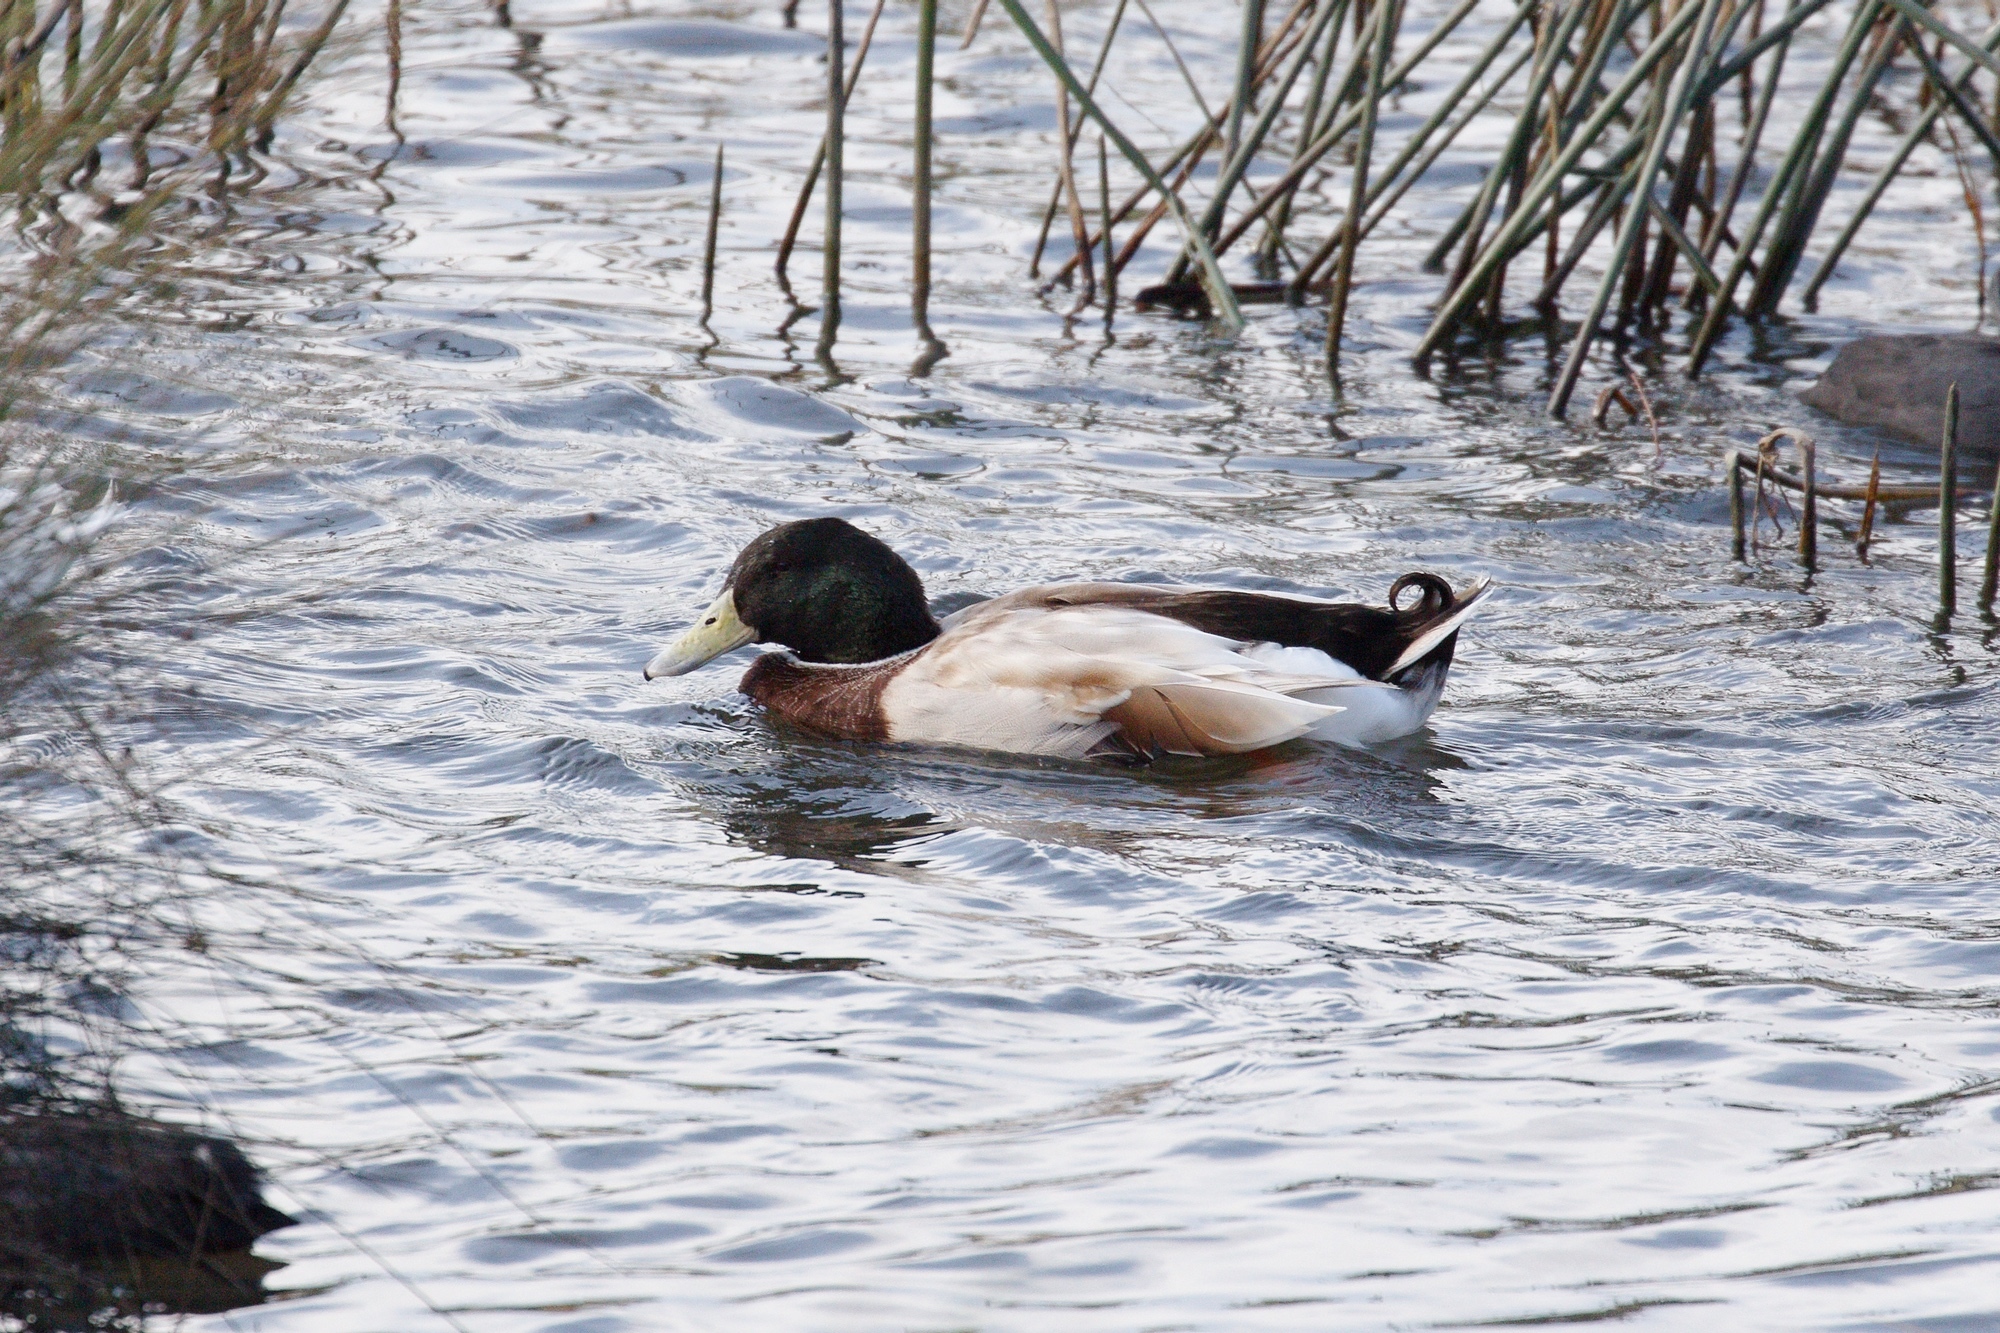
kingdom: Animalia
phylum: Chordata
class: Aves
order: Anseriformes
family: Anatidae
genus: Anas
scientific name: Anas platyrhynchos
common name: Mallard
